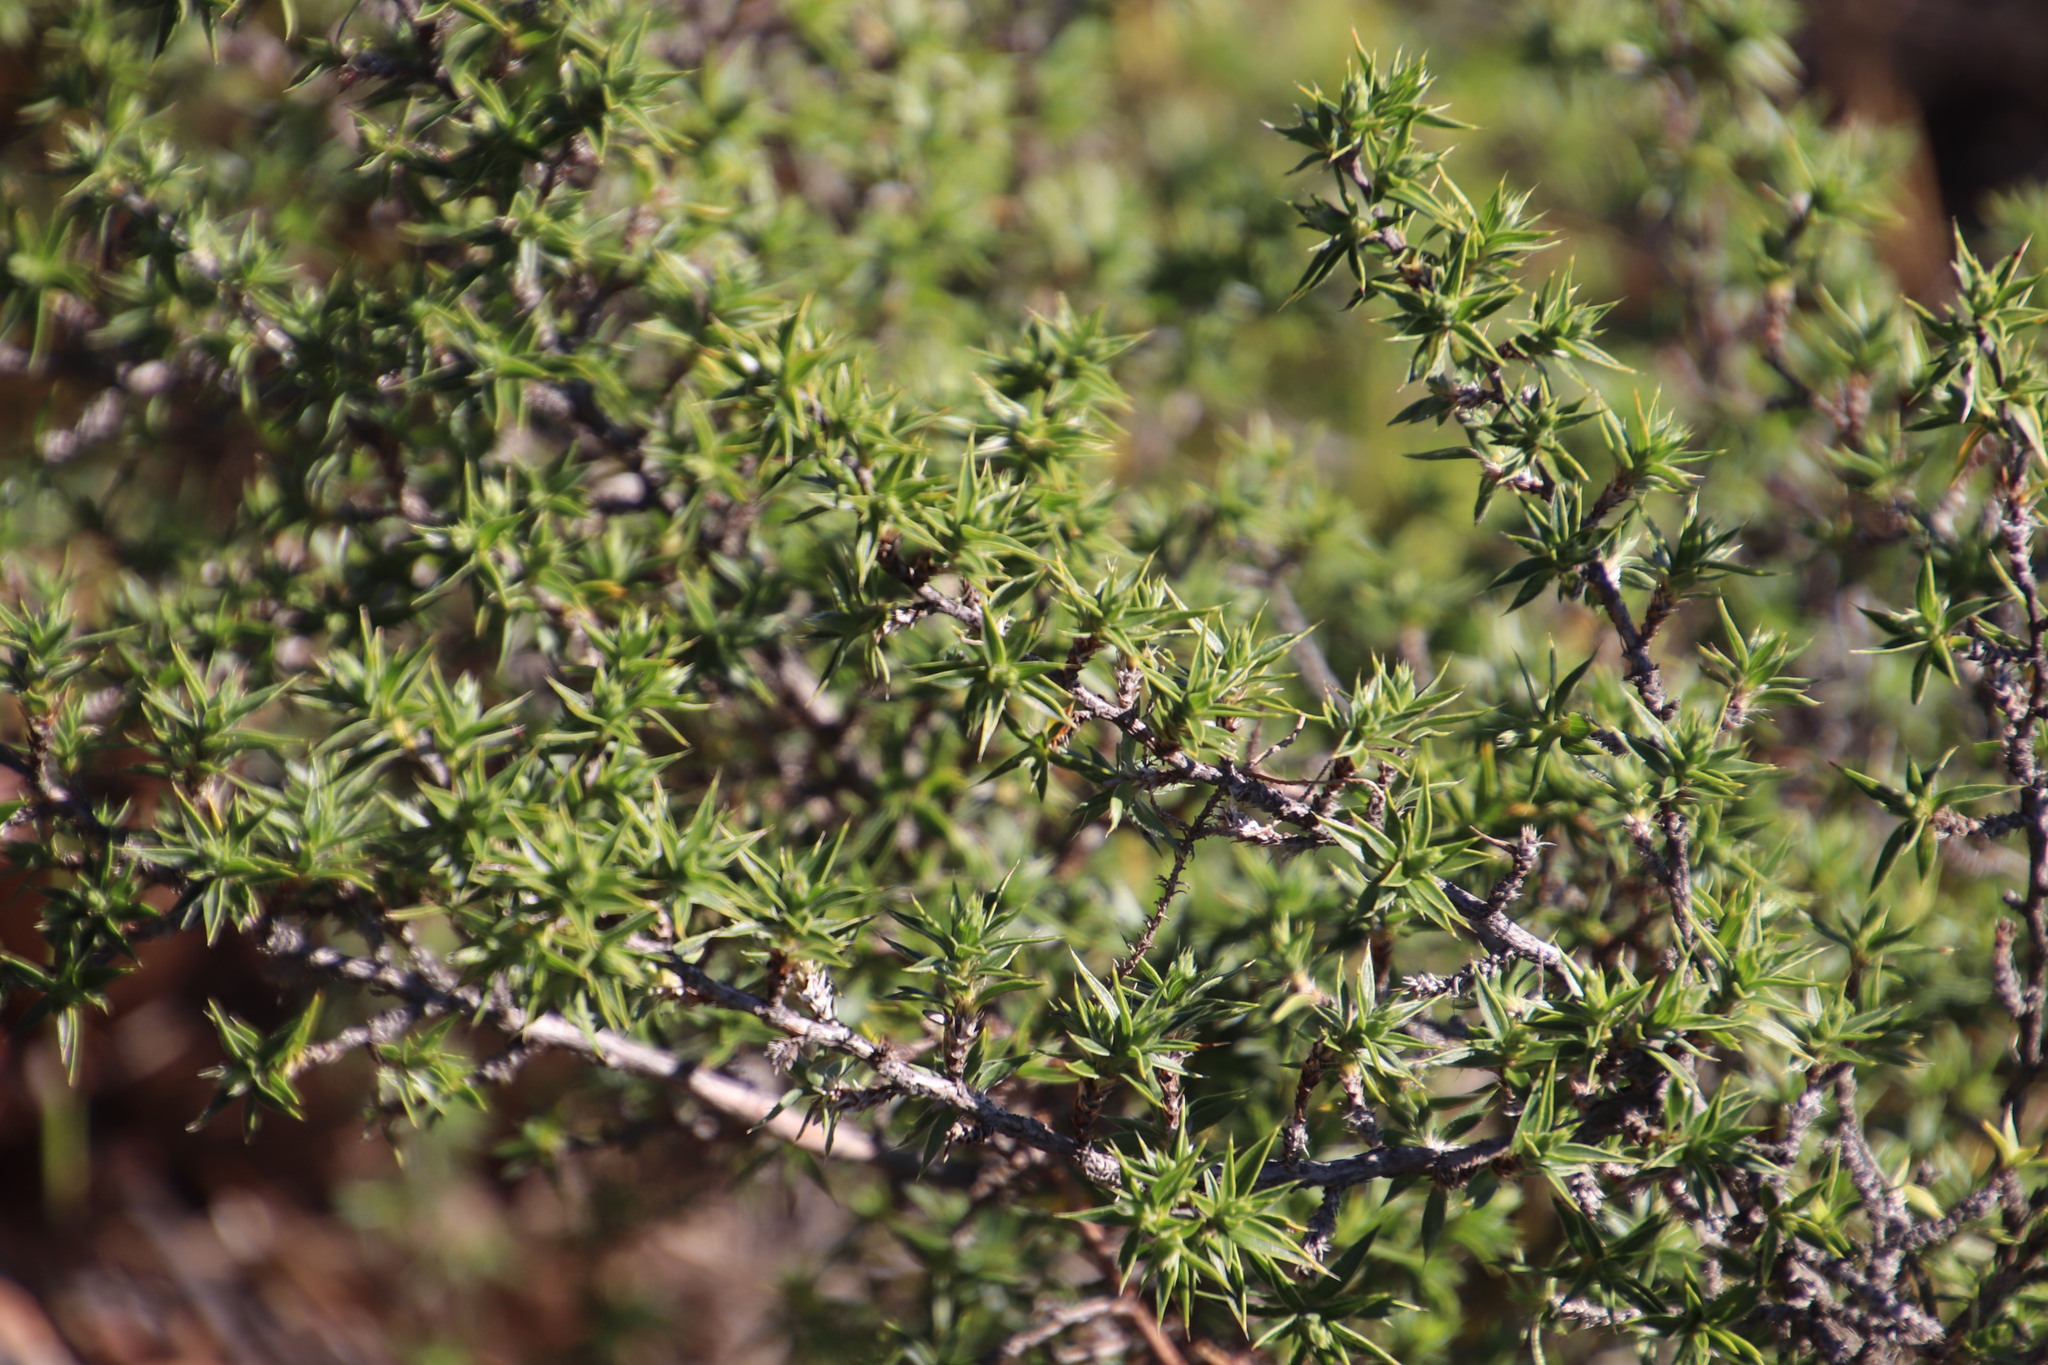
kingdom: Plantae
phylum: Tracheophyta
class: Magnoliopsida
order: Rosales
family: Rosaceae
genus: Cliffortia
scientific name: Cliffortia ruscifolia
